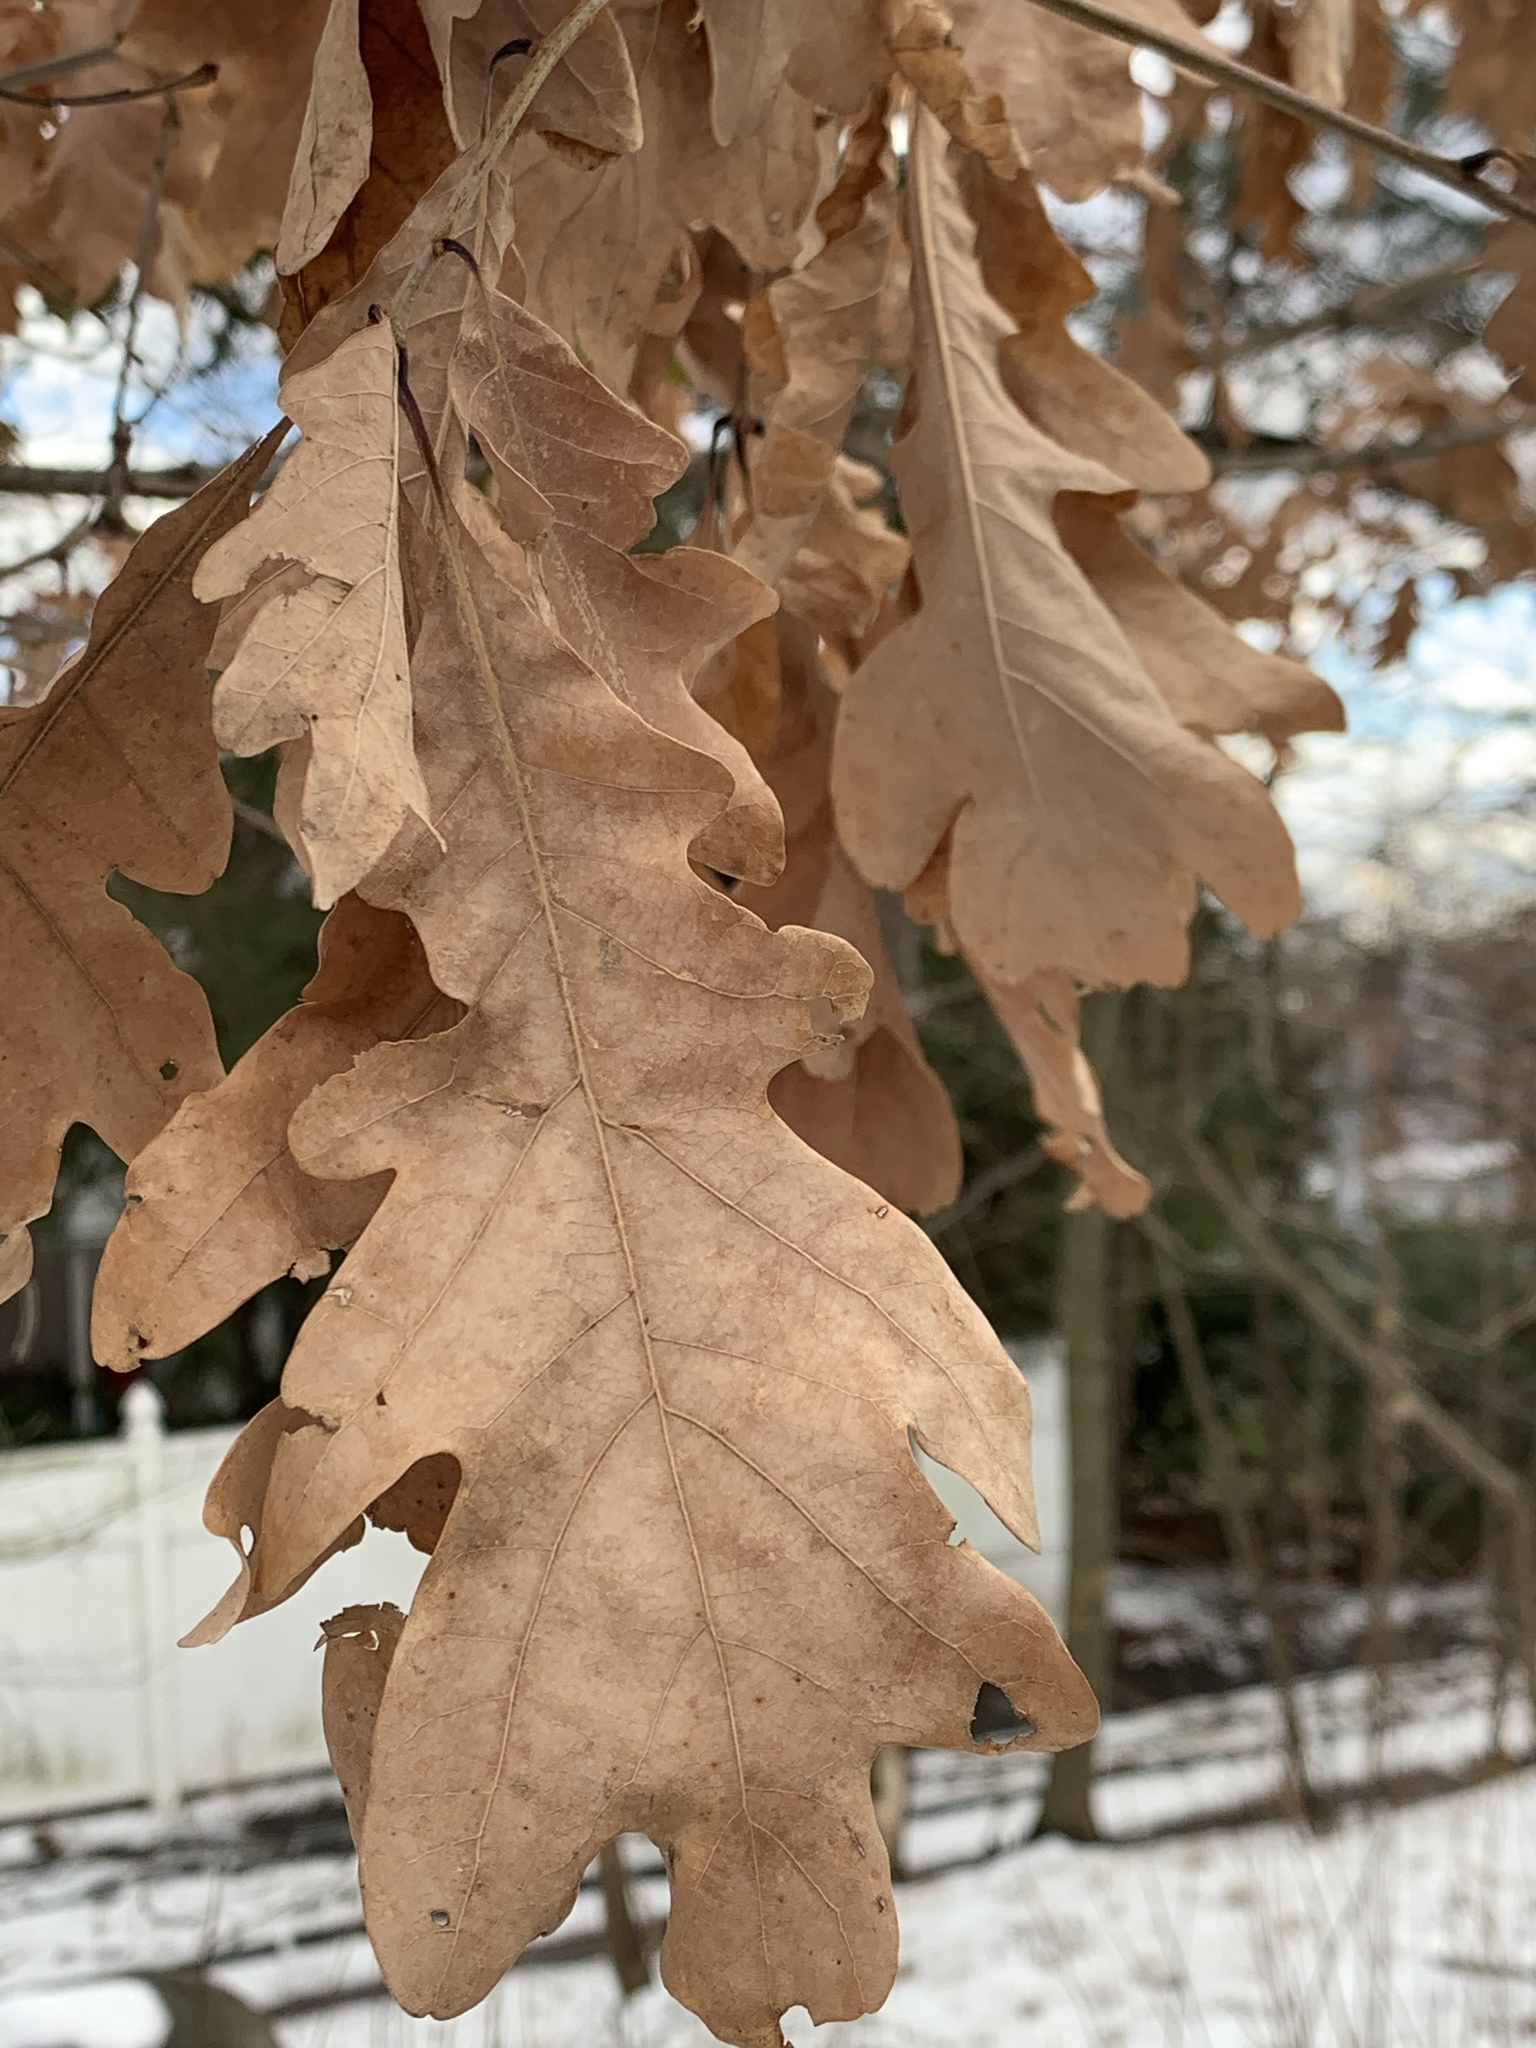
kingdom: Plantae
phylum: Tracheophyta
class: Magnoliopsida
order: Fagales
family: Fagaceae
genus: Quercus
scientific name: Quercus alba
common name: White oak
